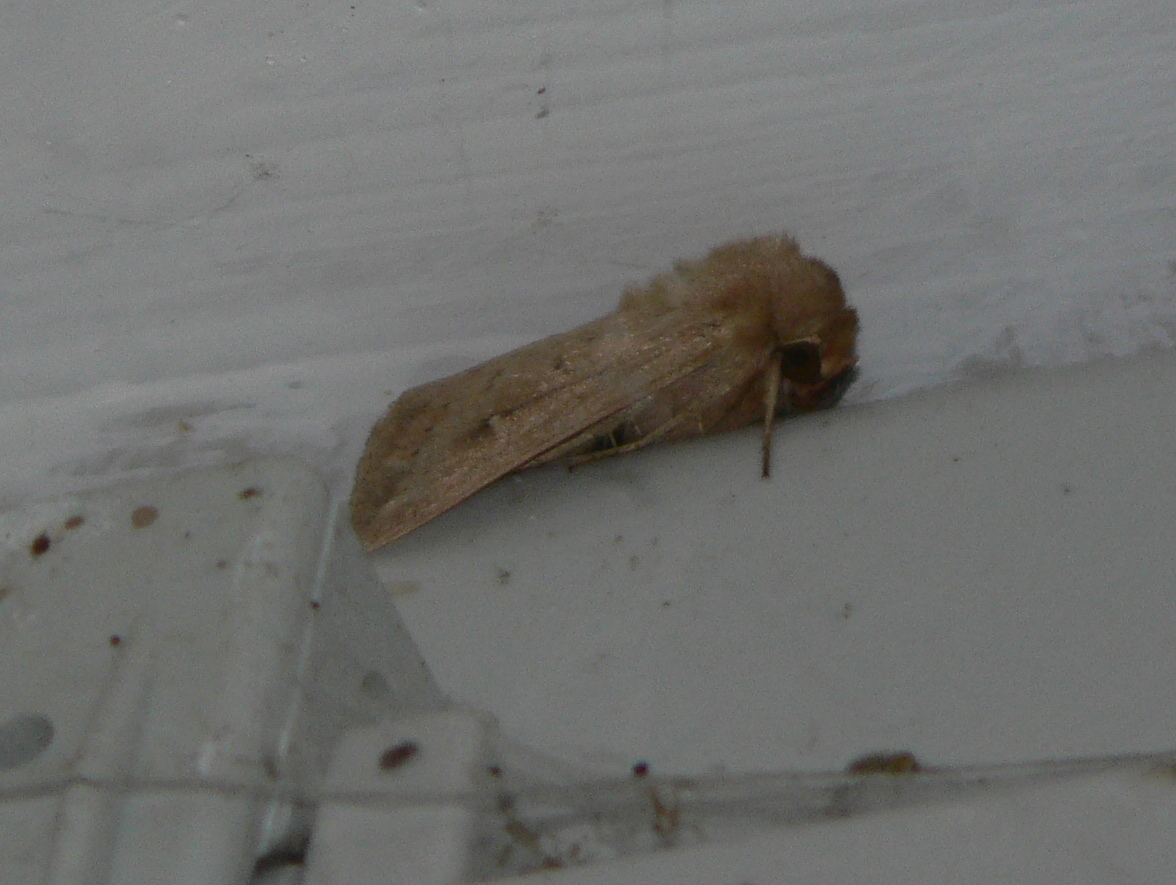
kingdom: Animalia
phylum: Arthropoda
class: Insecta
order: Lepidoptera
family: Noctuidae
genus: Mythimna
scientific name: Mythimna ferrago
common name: Clay
